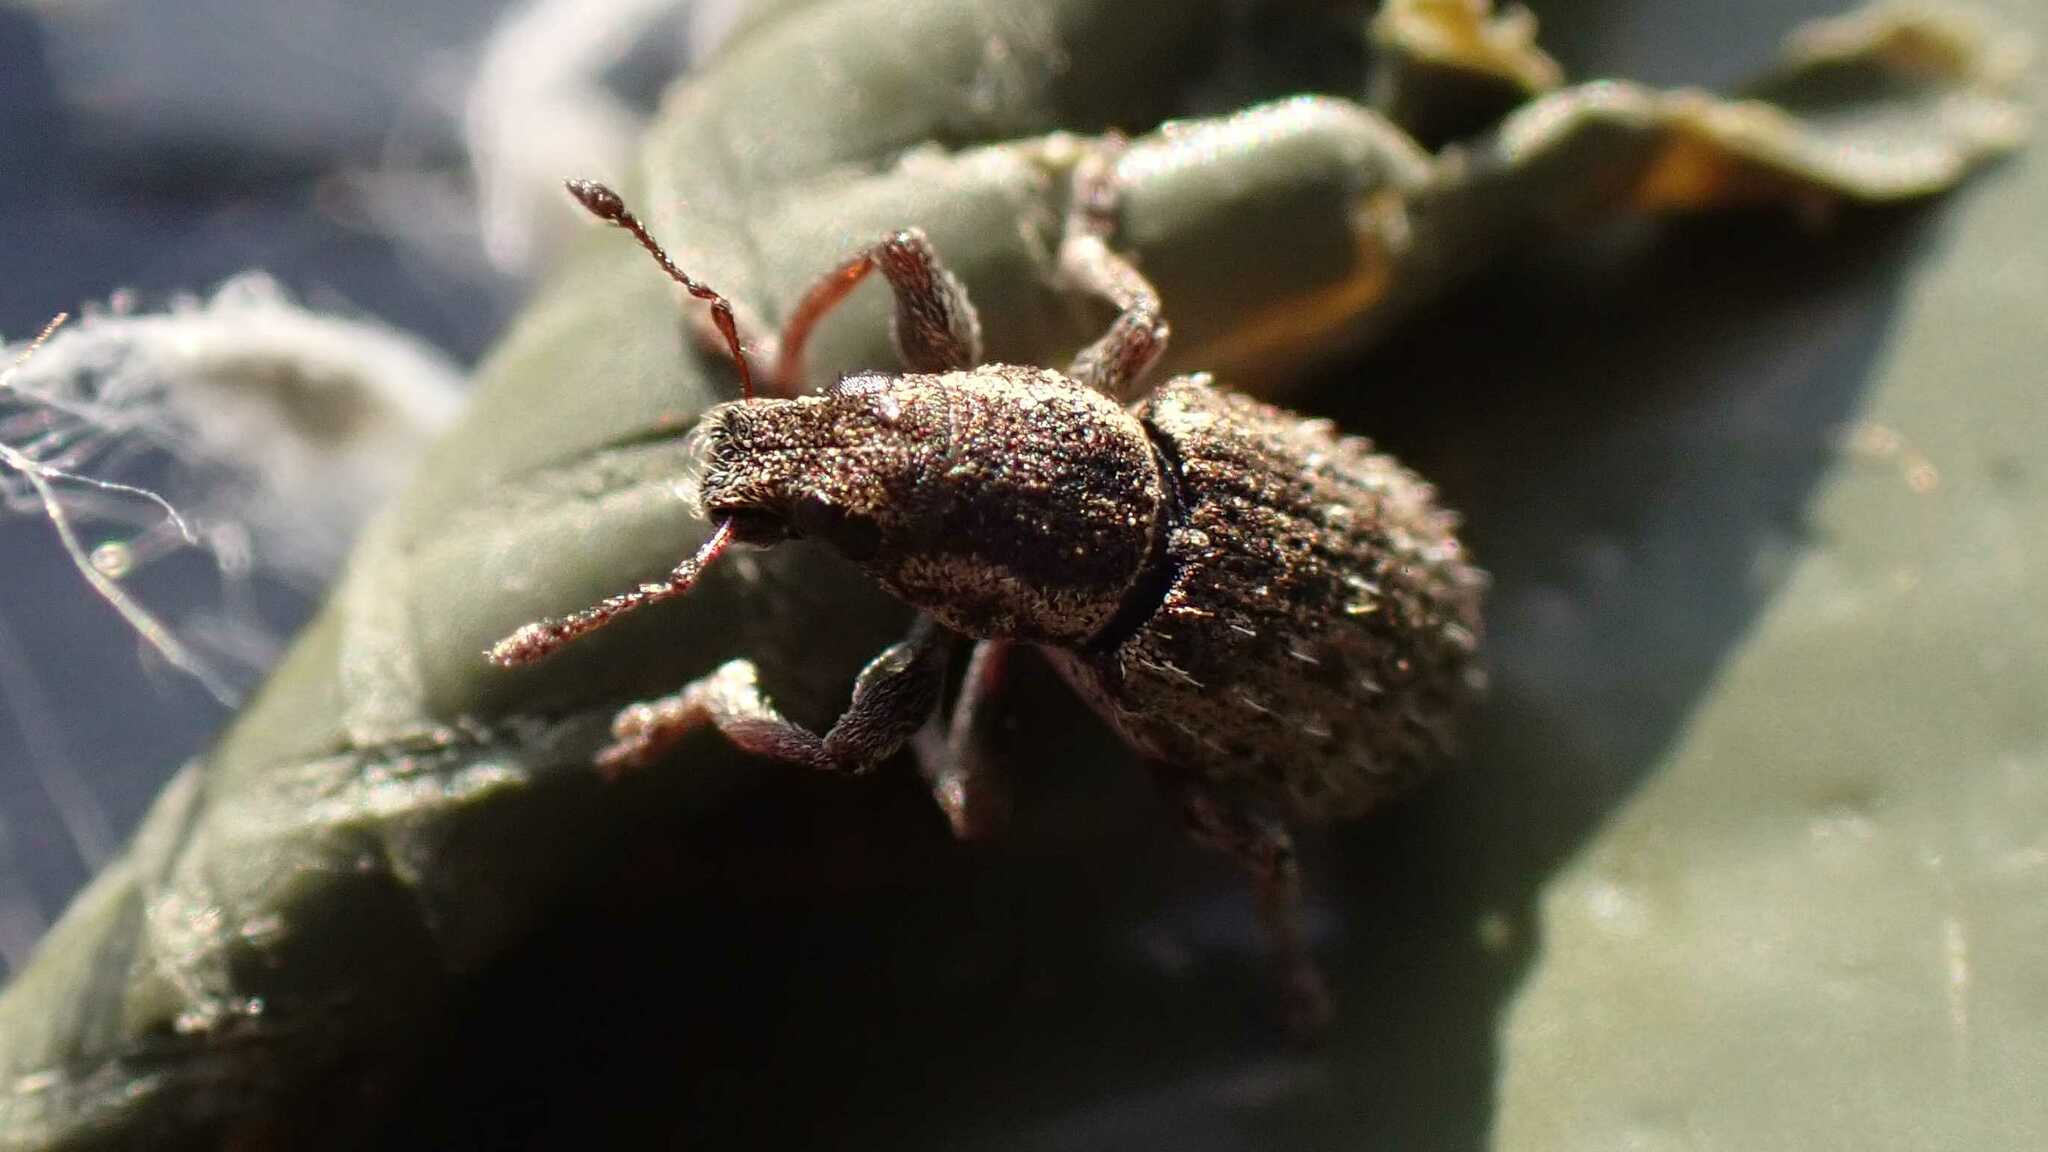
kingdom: Animalia
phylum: Arthropoda
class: Insecta
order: Coleoptera
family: Curculionidae
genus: Sitona
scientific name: Sitona hispidulus
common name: Clover weevil
